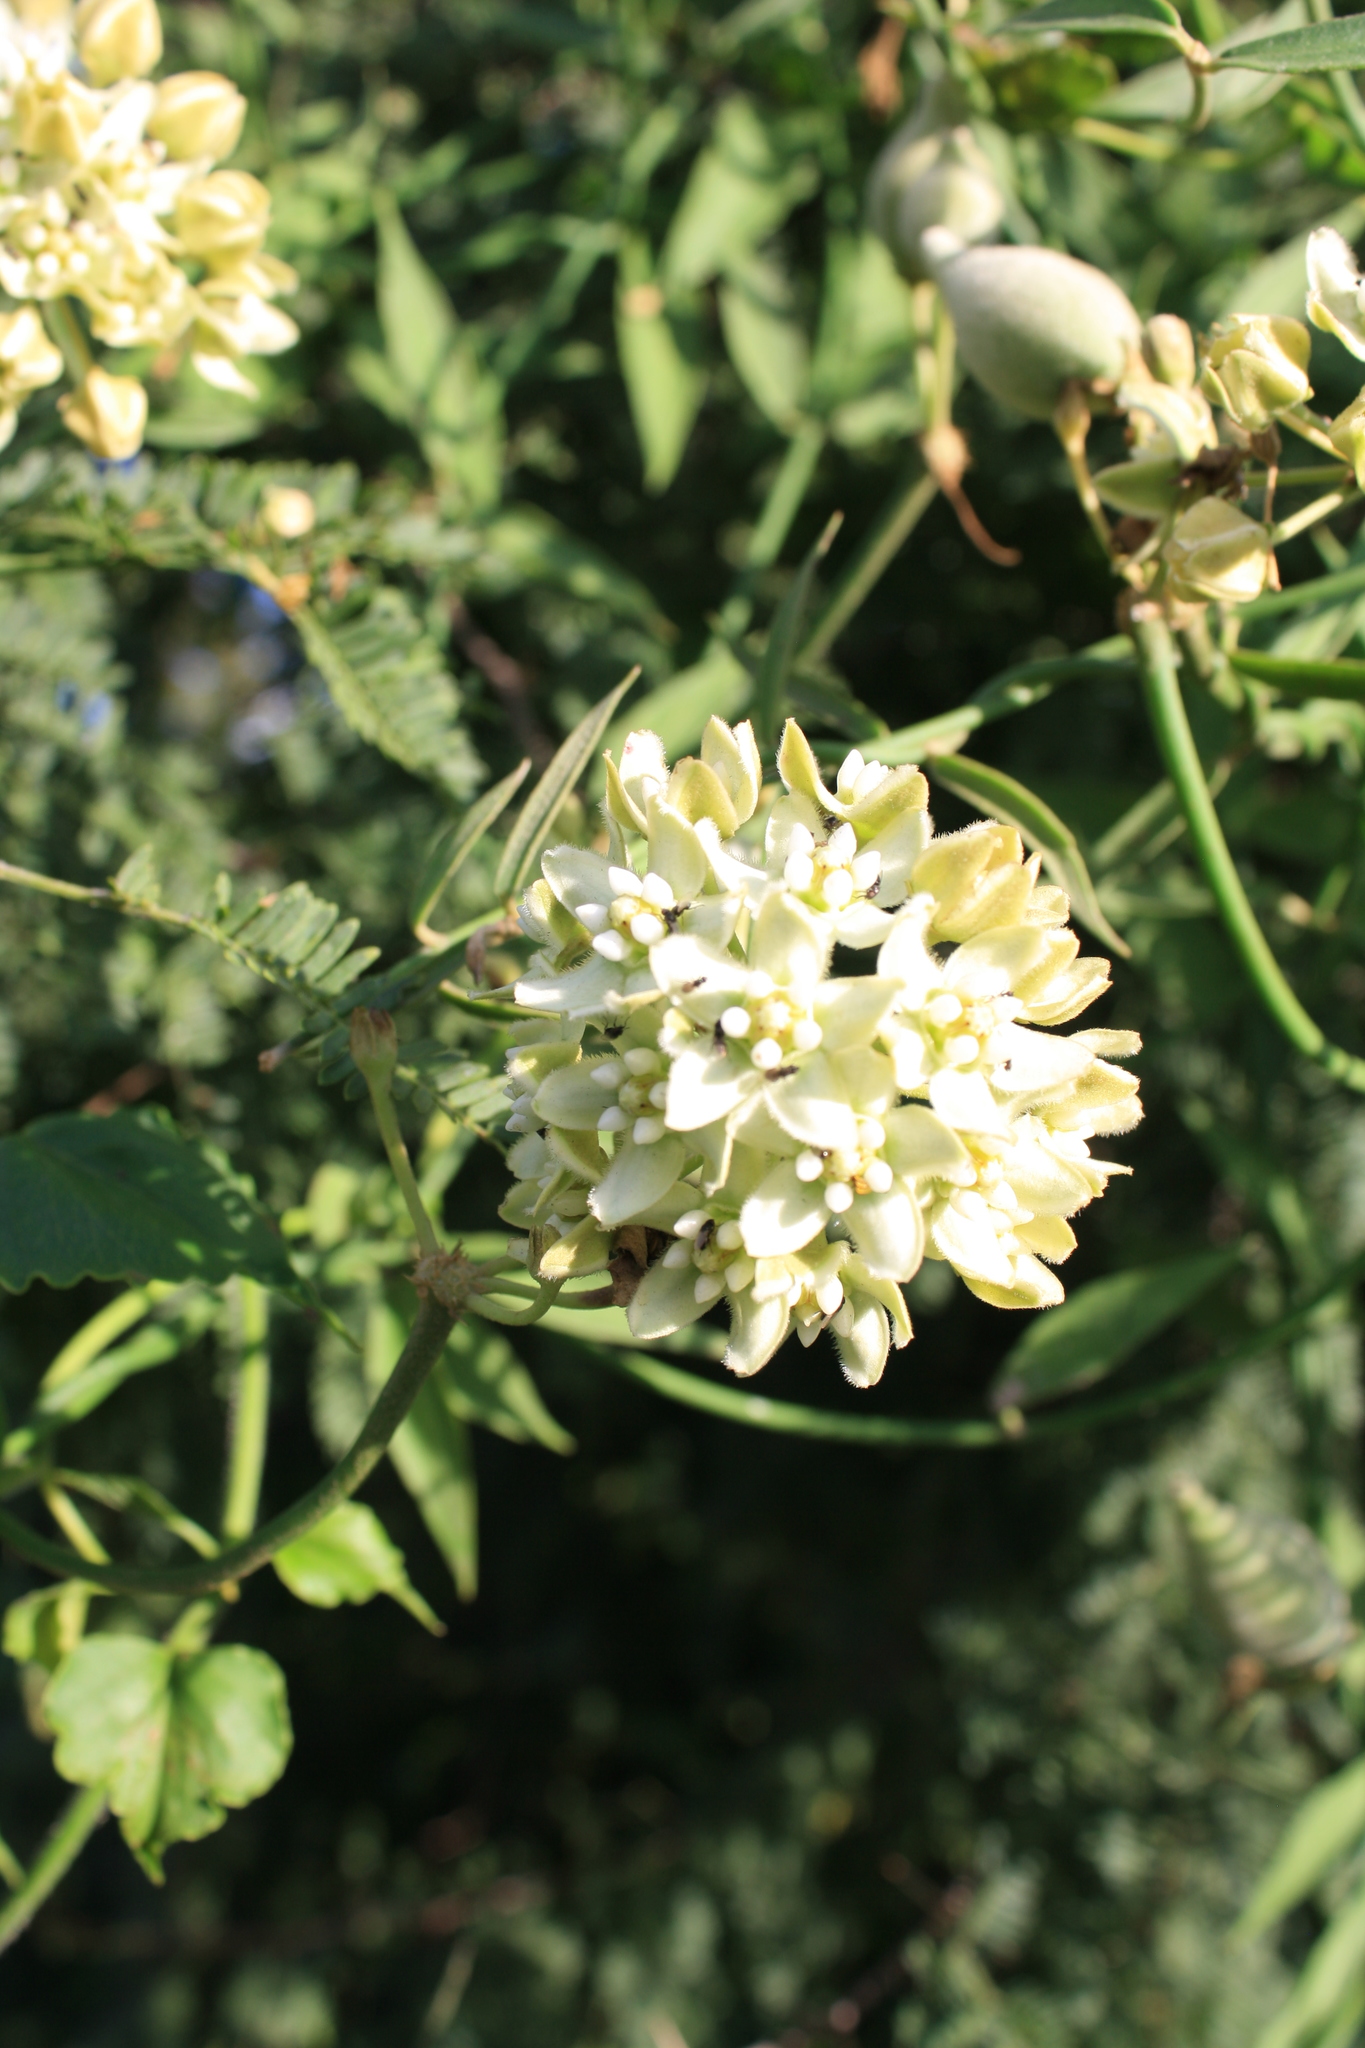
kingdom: Plantae
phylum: Tracheophyta
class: Magnoliopsida
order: Gentianales
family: Apocynaceae
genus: Funastrum
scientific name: Funastrum clausum
